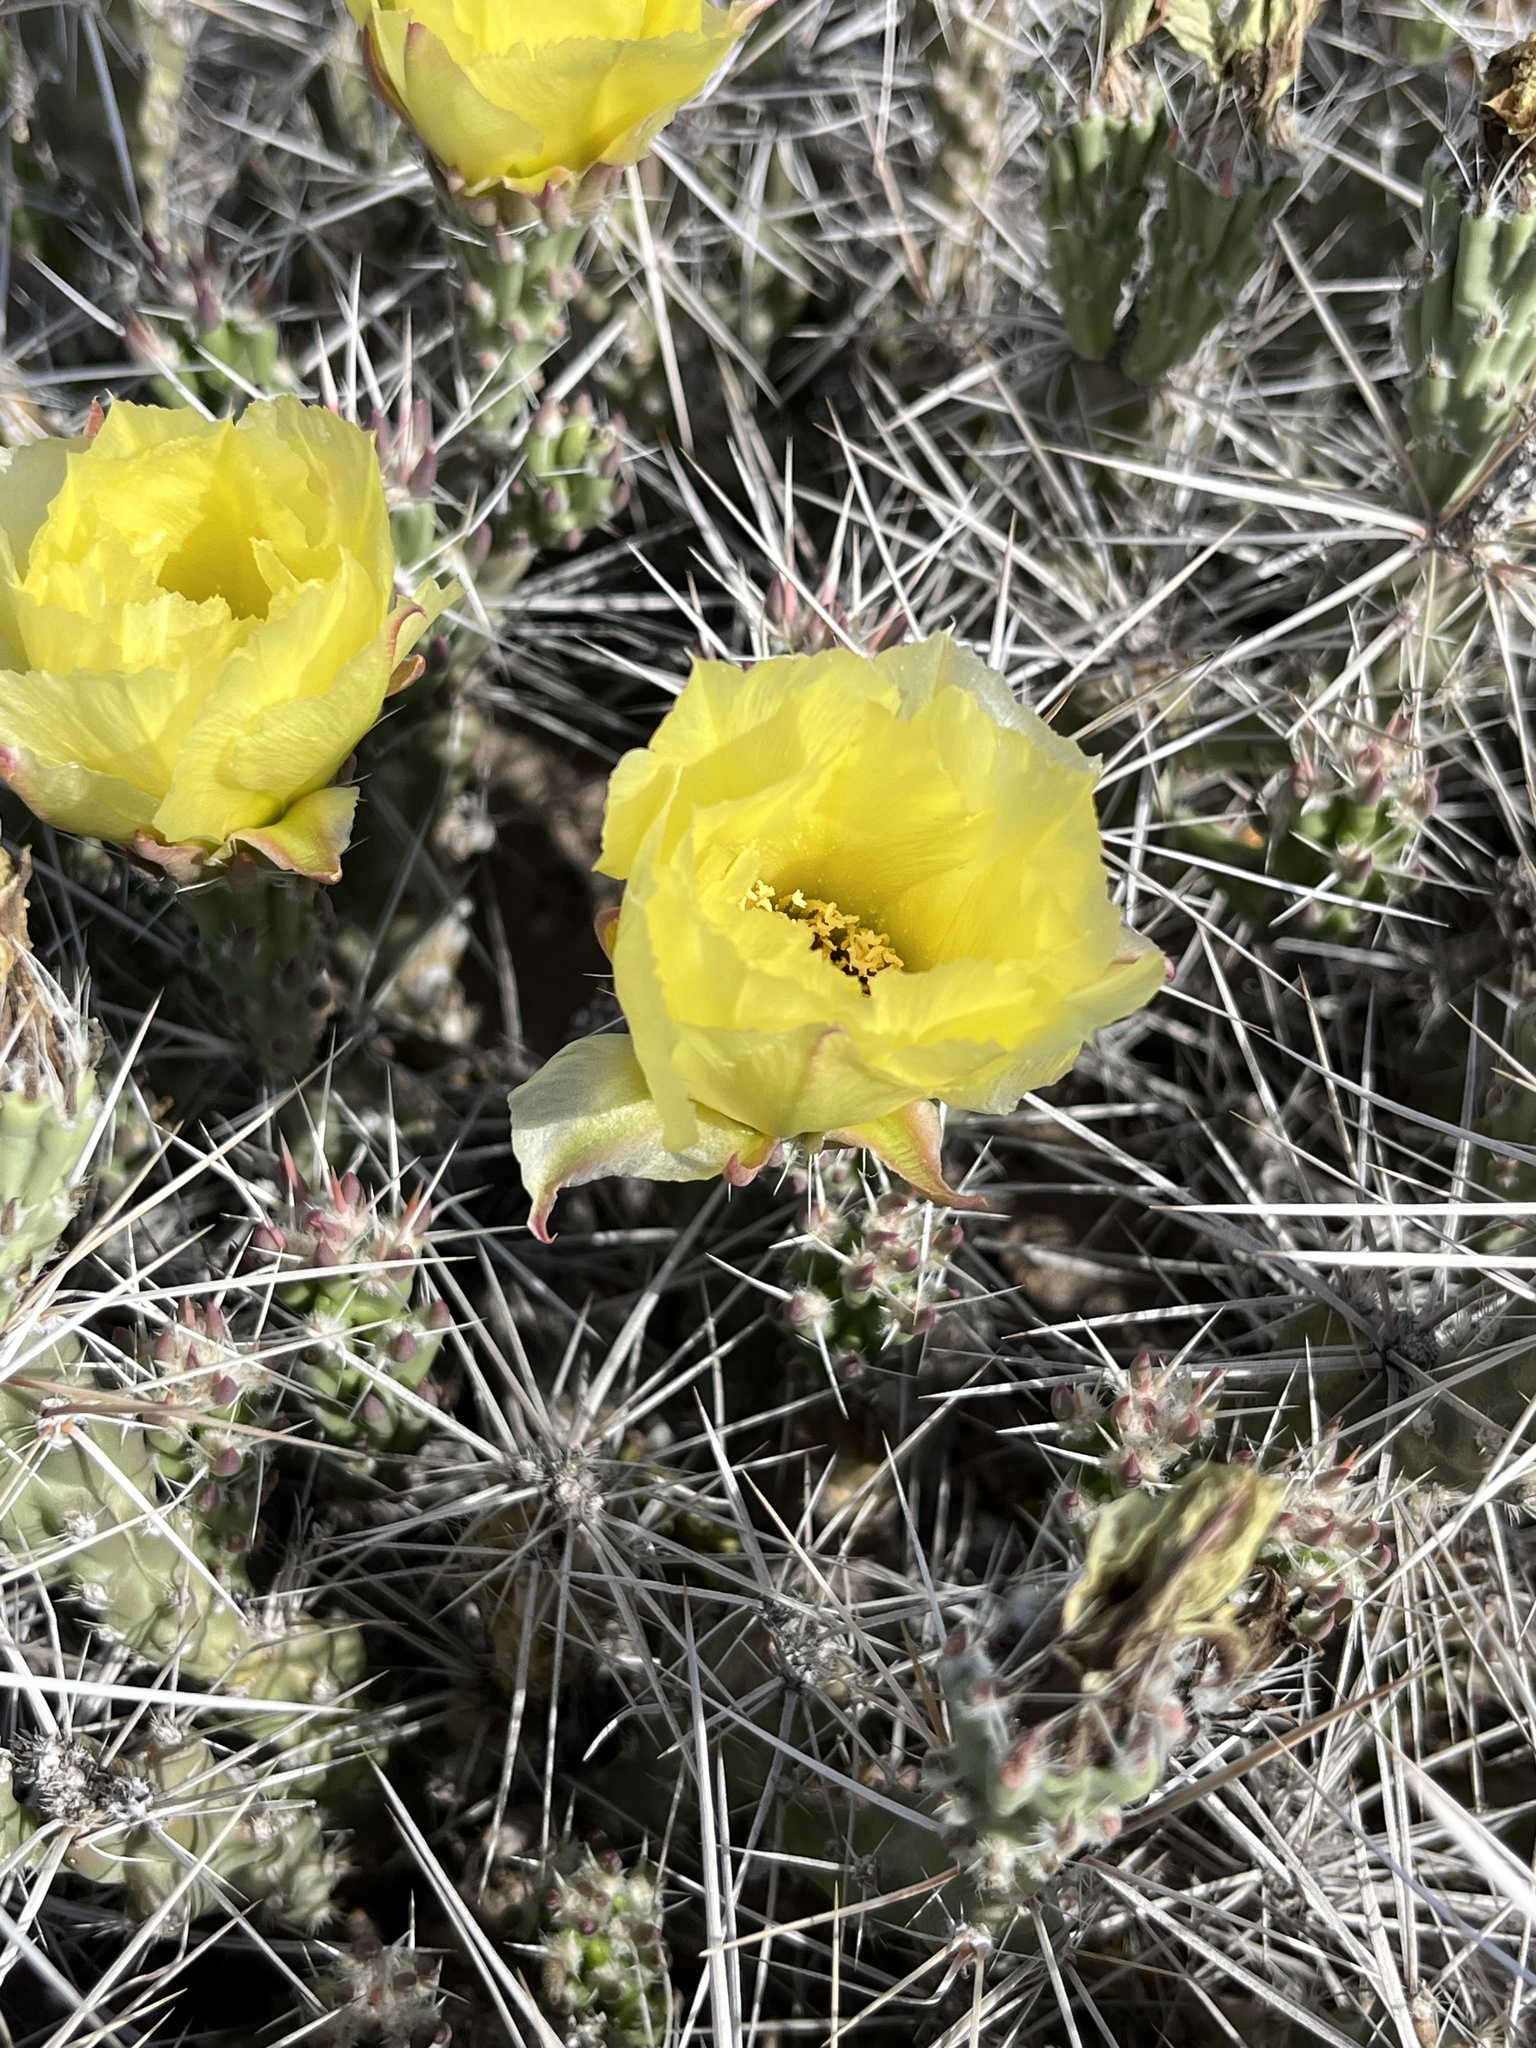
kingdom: Plantae
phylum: Tracheophyta
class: Magnoliopsida
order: Caryophyllales
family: Cactaceae
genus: Grusonia
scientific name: Grusonia aggeria
